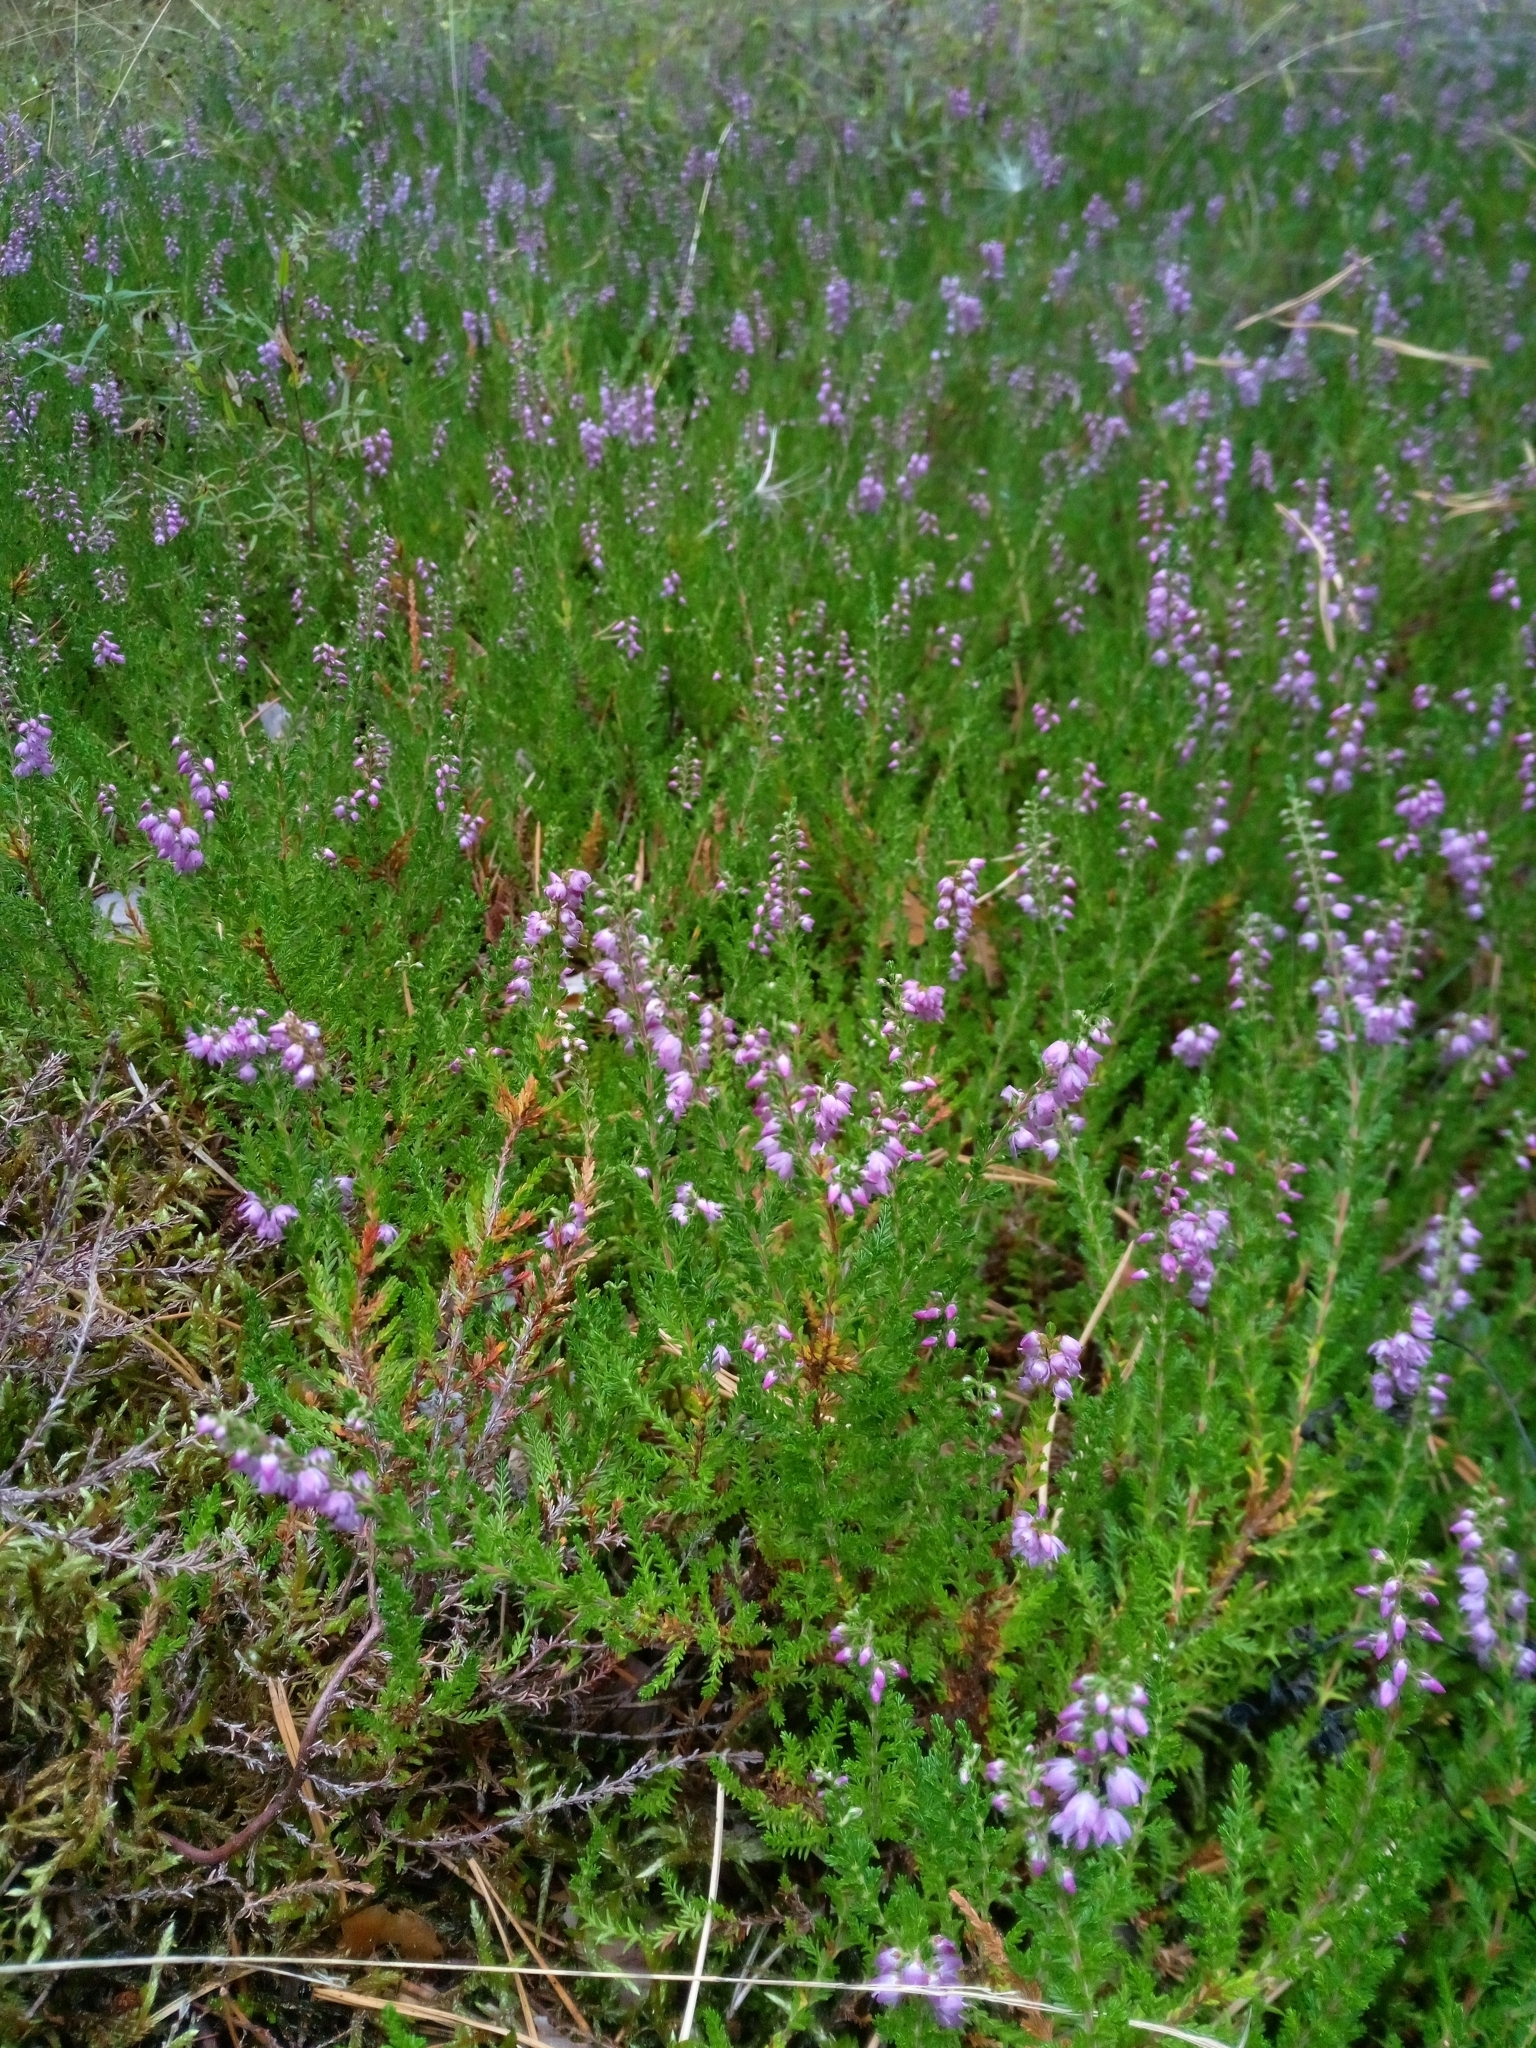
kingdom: Plantae
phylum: Tracheophyta
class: Magnoliopsida
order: Ericales
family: Ericaceae
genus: Calluna
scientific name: Calluna vulgaris
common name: Heather
